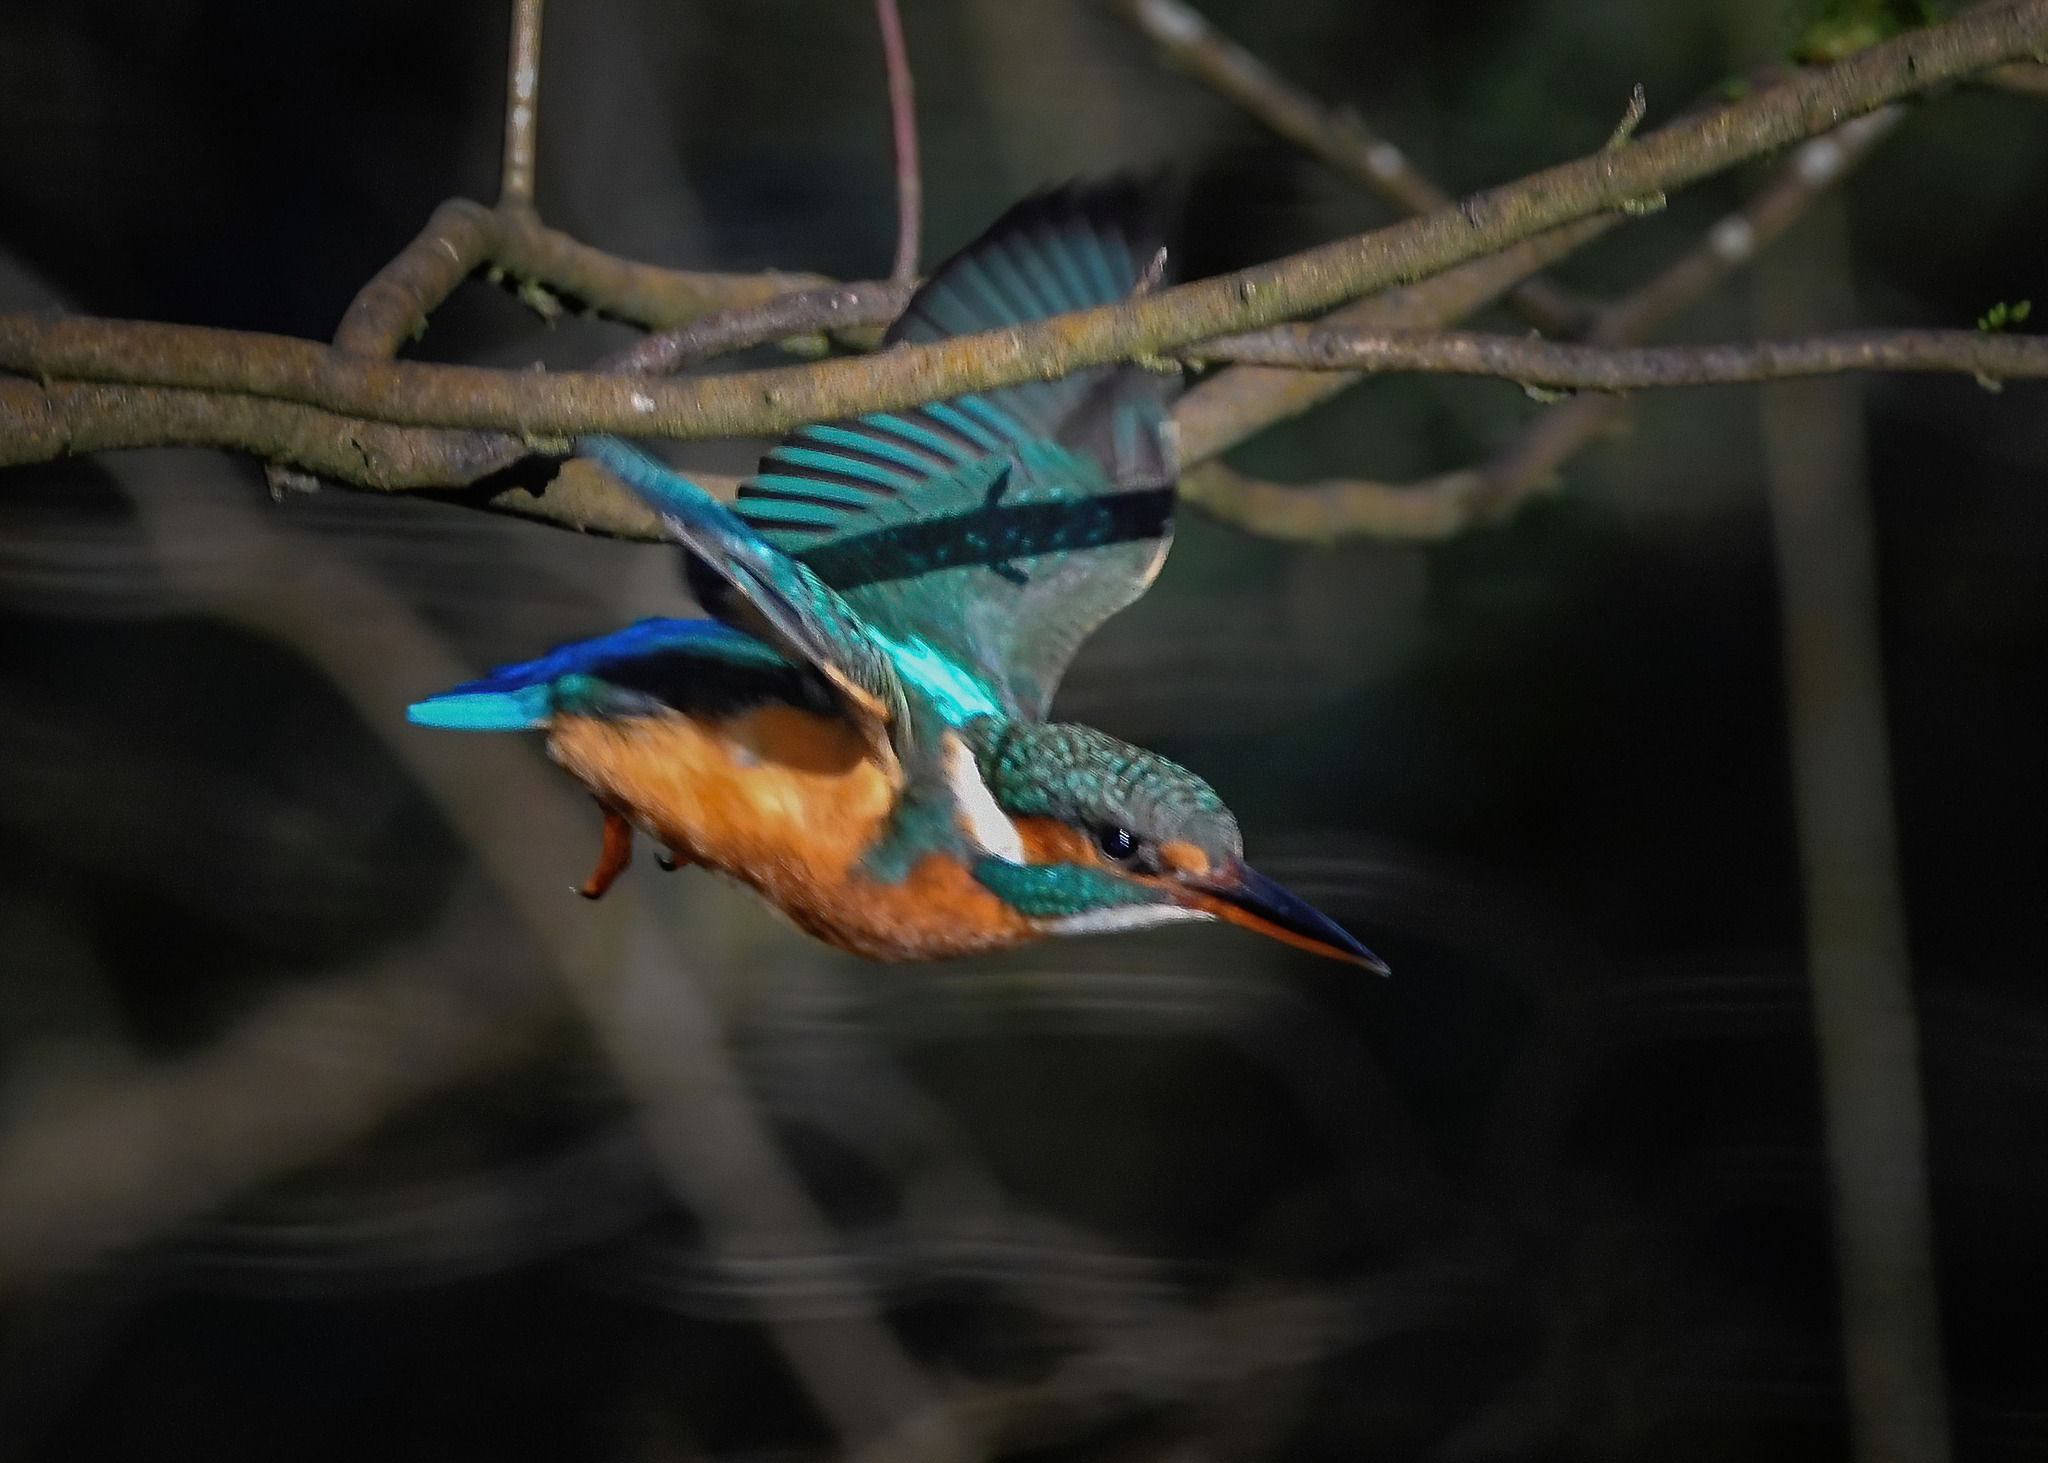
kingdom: Animalia
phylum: Chordata
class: Aves
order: Coraciiformes
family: Alcedinidae
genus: Alcedo
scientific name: Alcedo atthis
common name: Common kingfisher
